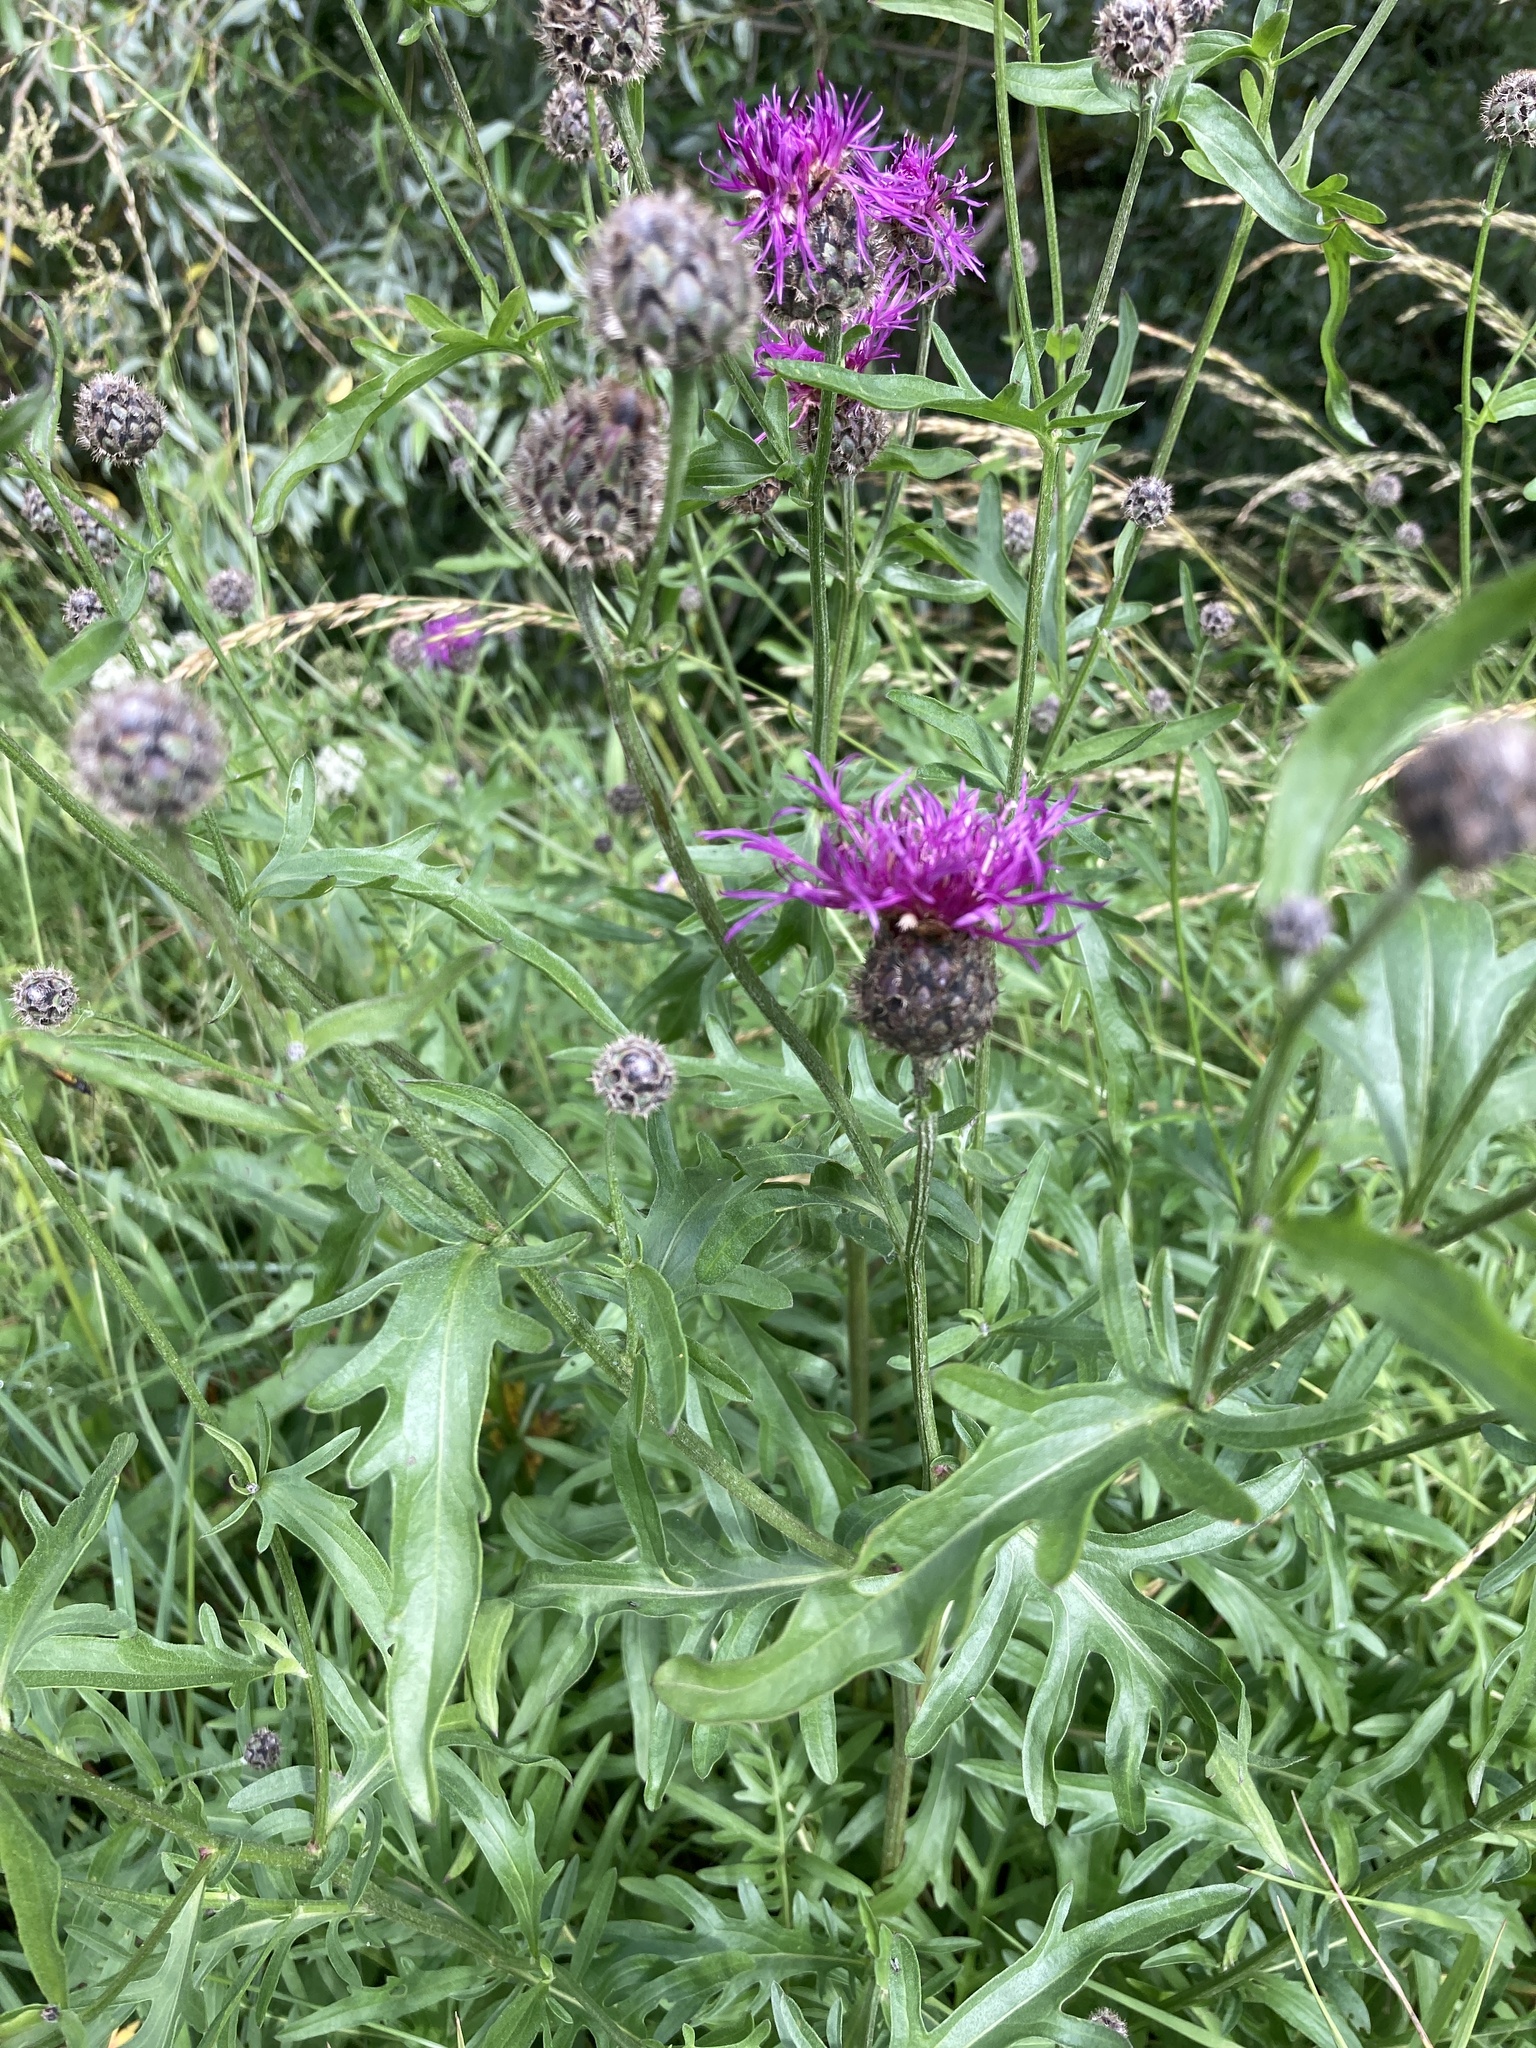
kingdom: Plantae
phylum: Tracheophyta
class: Magnoliopsida
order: Asterales
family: Asteraceae
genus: Centaurea
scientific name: Centaurea scabiosa
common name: Greater knapweed
